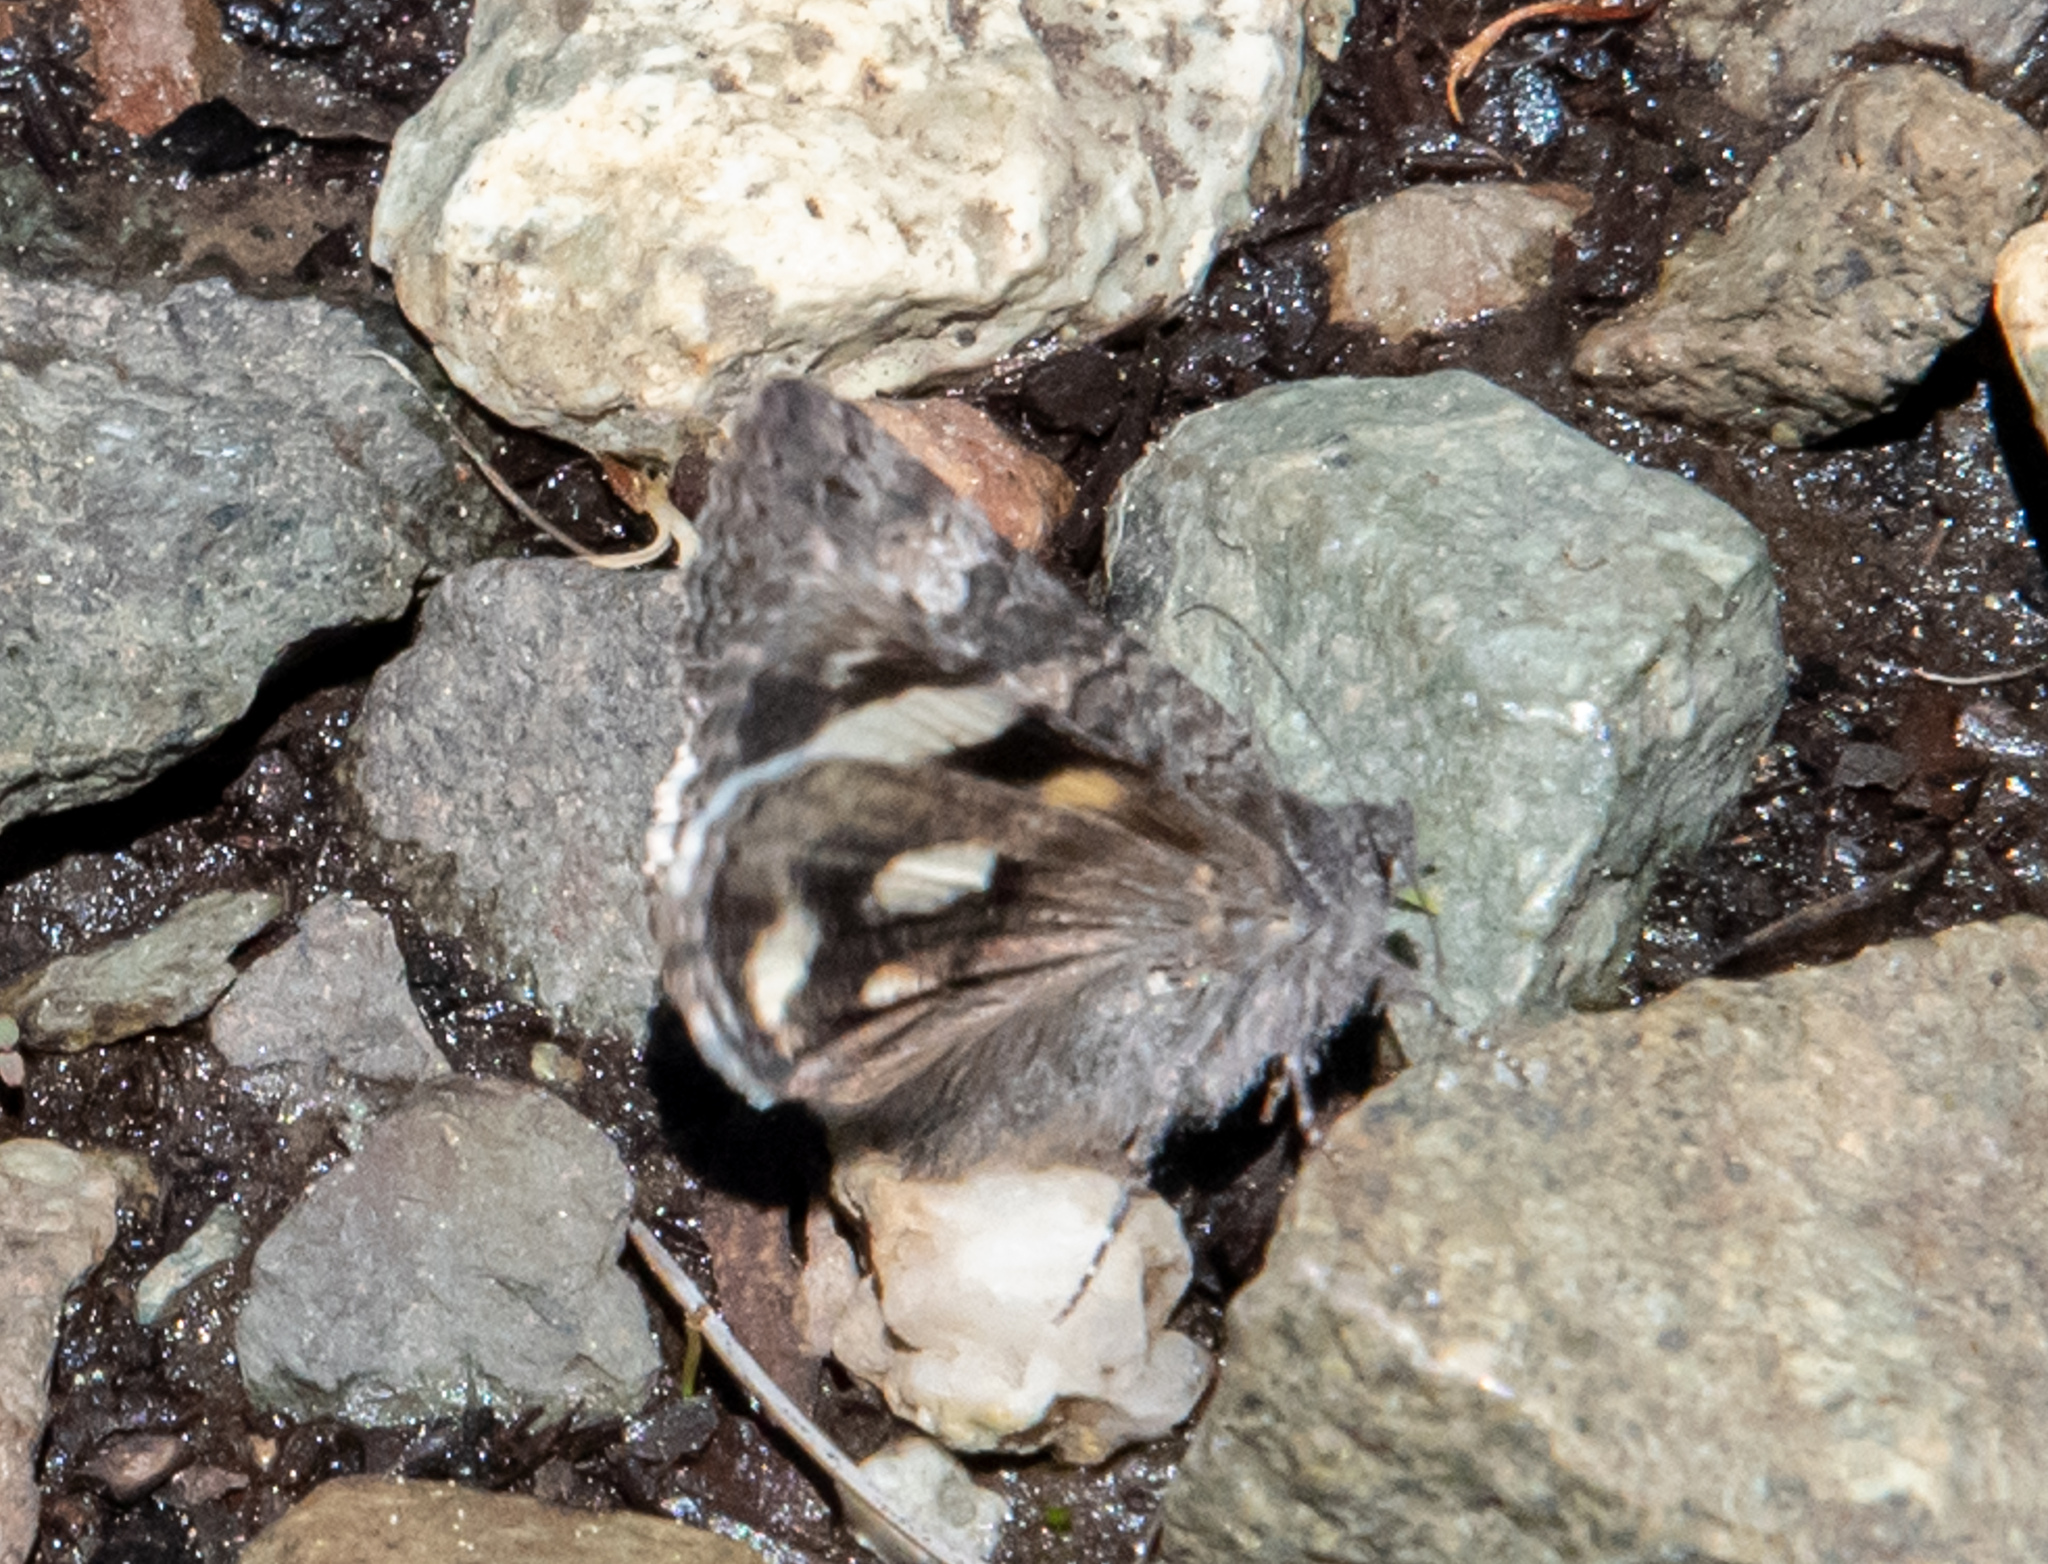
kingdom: Animalia
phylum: Arthropoda
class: Insecta
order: Lepidoptera
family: Erebidae
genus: Litocala
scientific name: Litocala sexsignata
